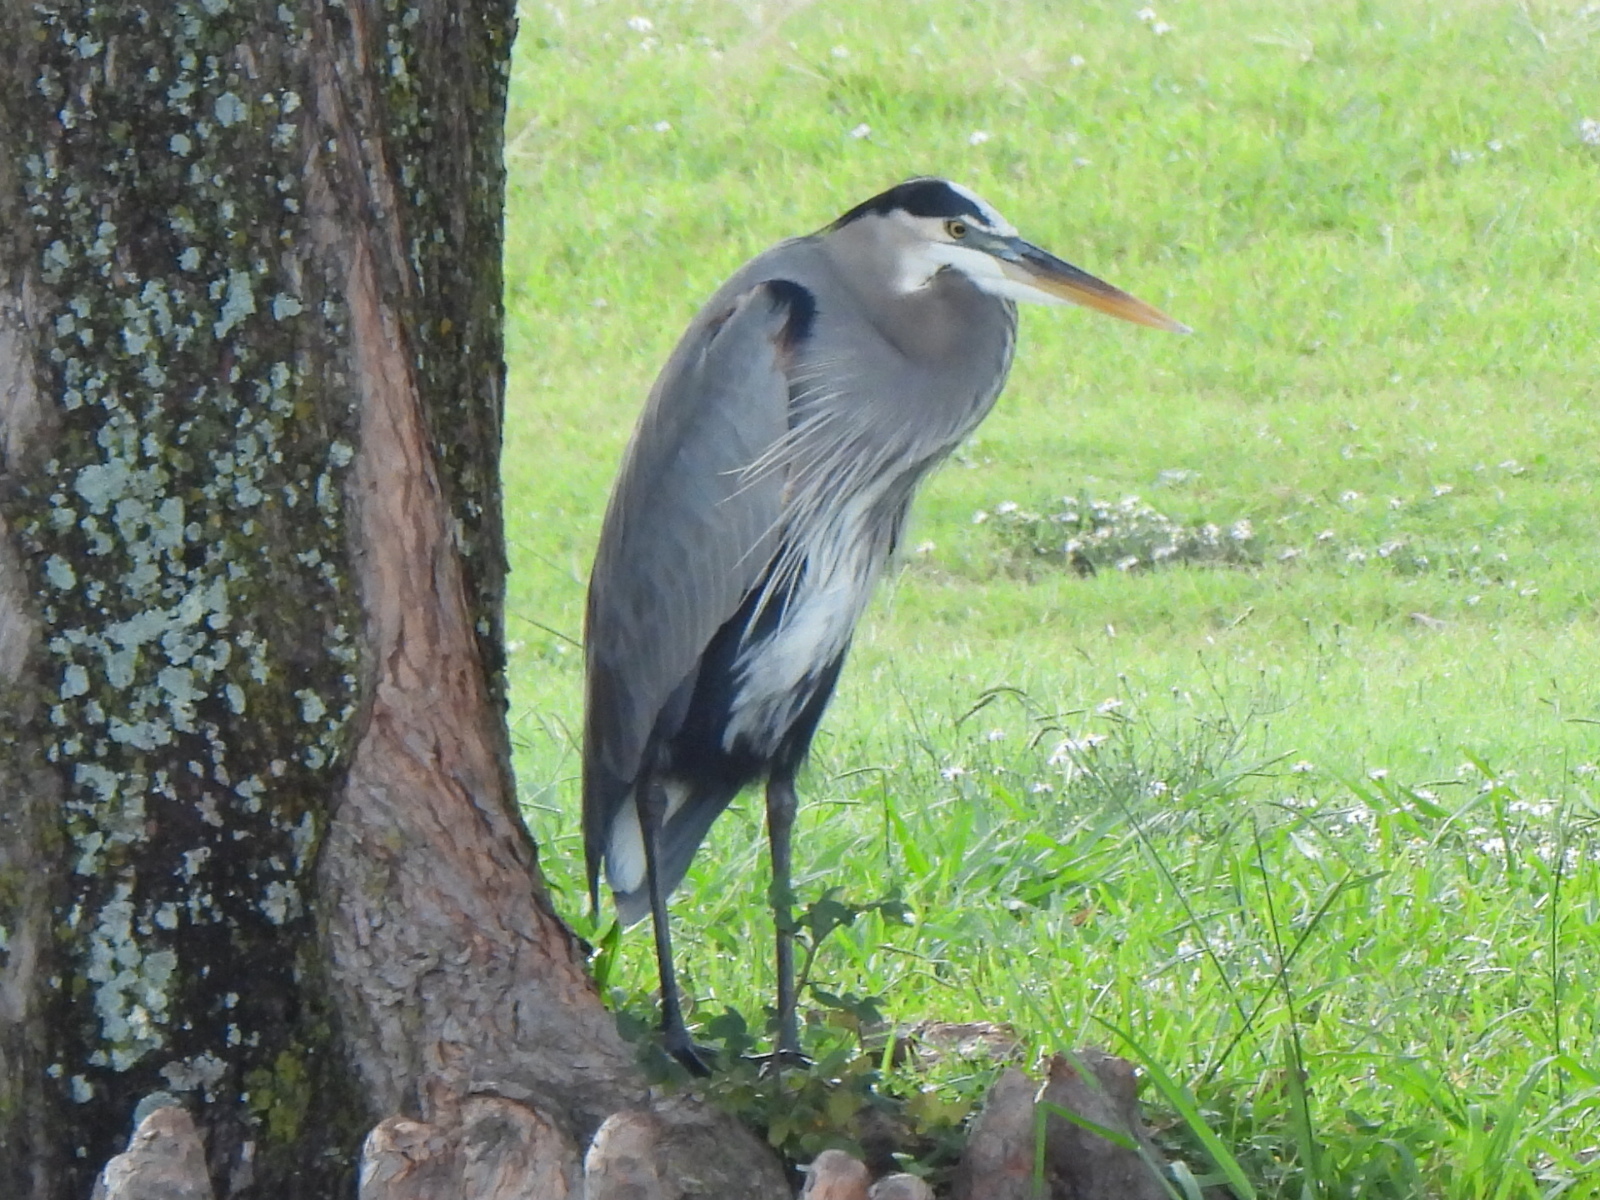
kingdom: Animalia
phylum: Chordata
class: Aves
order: Pelecaniformes
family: Ardeidae
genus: Ardea
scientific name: Ardea herodias
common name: Great blue heron
